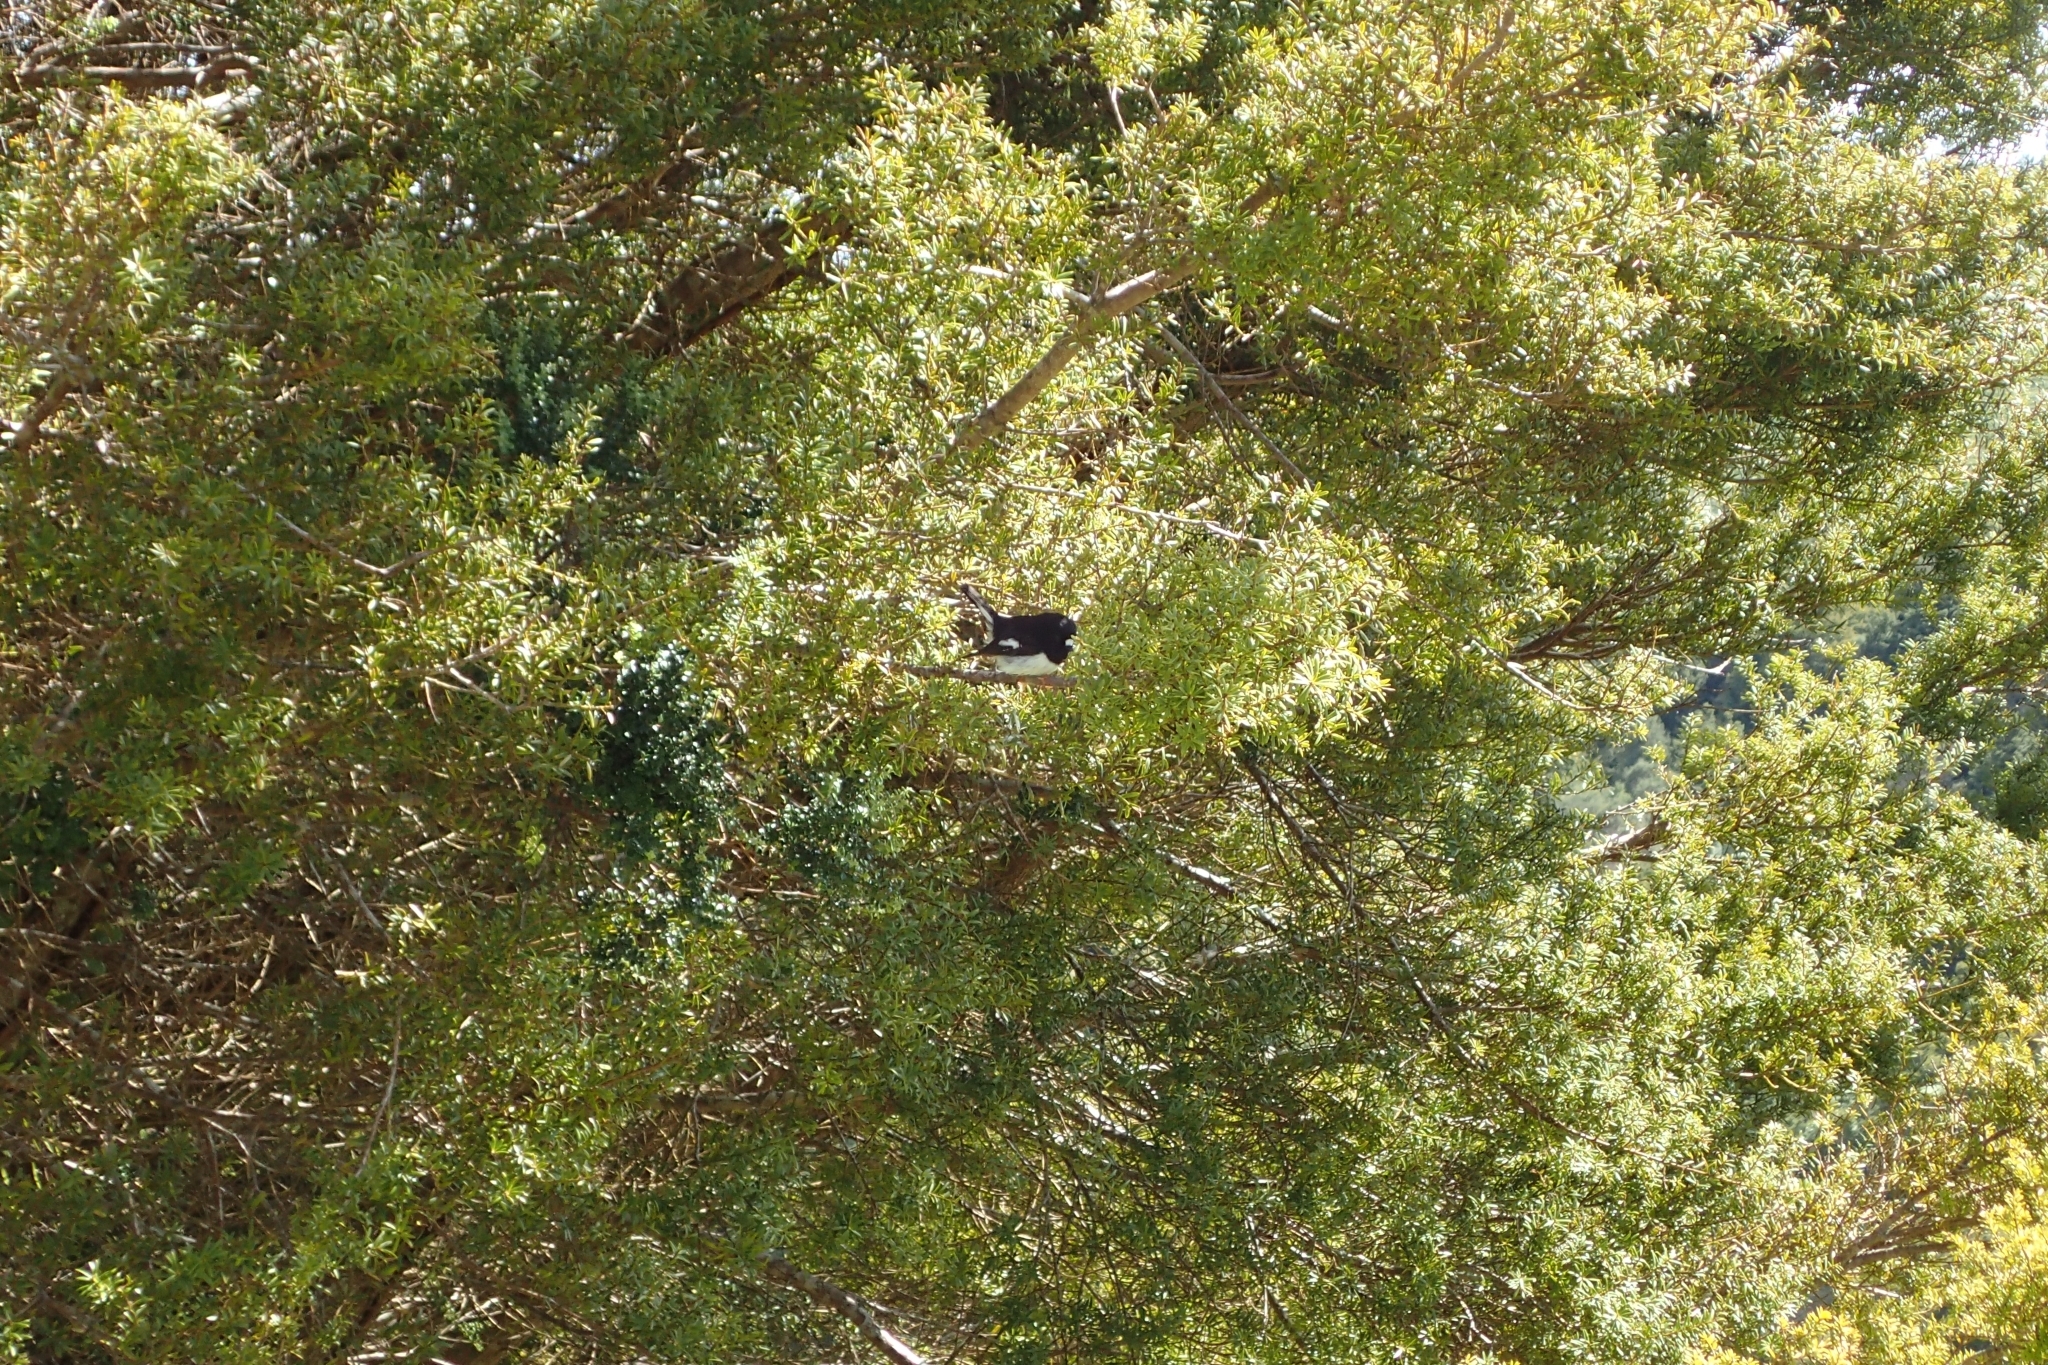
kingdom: Animalia
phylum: Chordata
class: Aves
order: Passeriformes
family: Petroicidae
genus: Petroica
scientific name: Petroica macrocephala
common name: Tomtit
